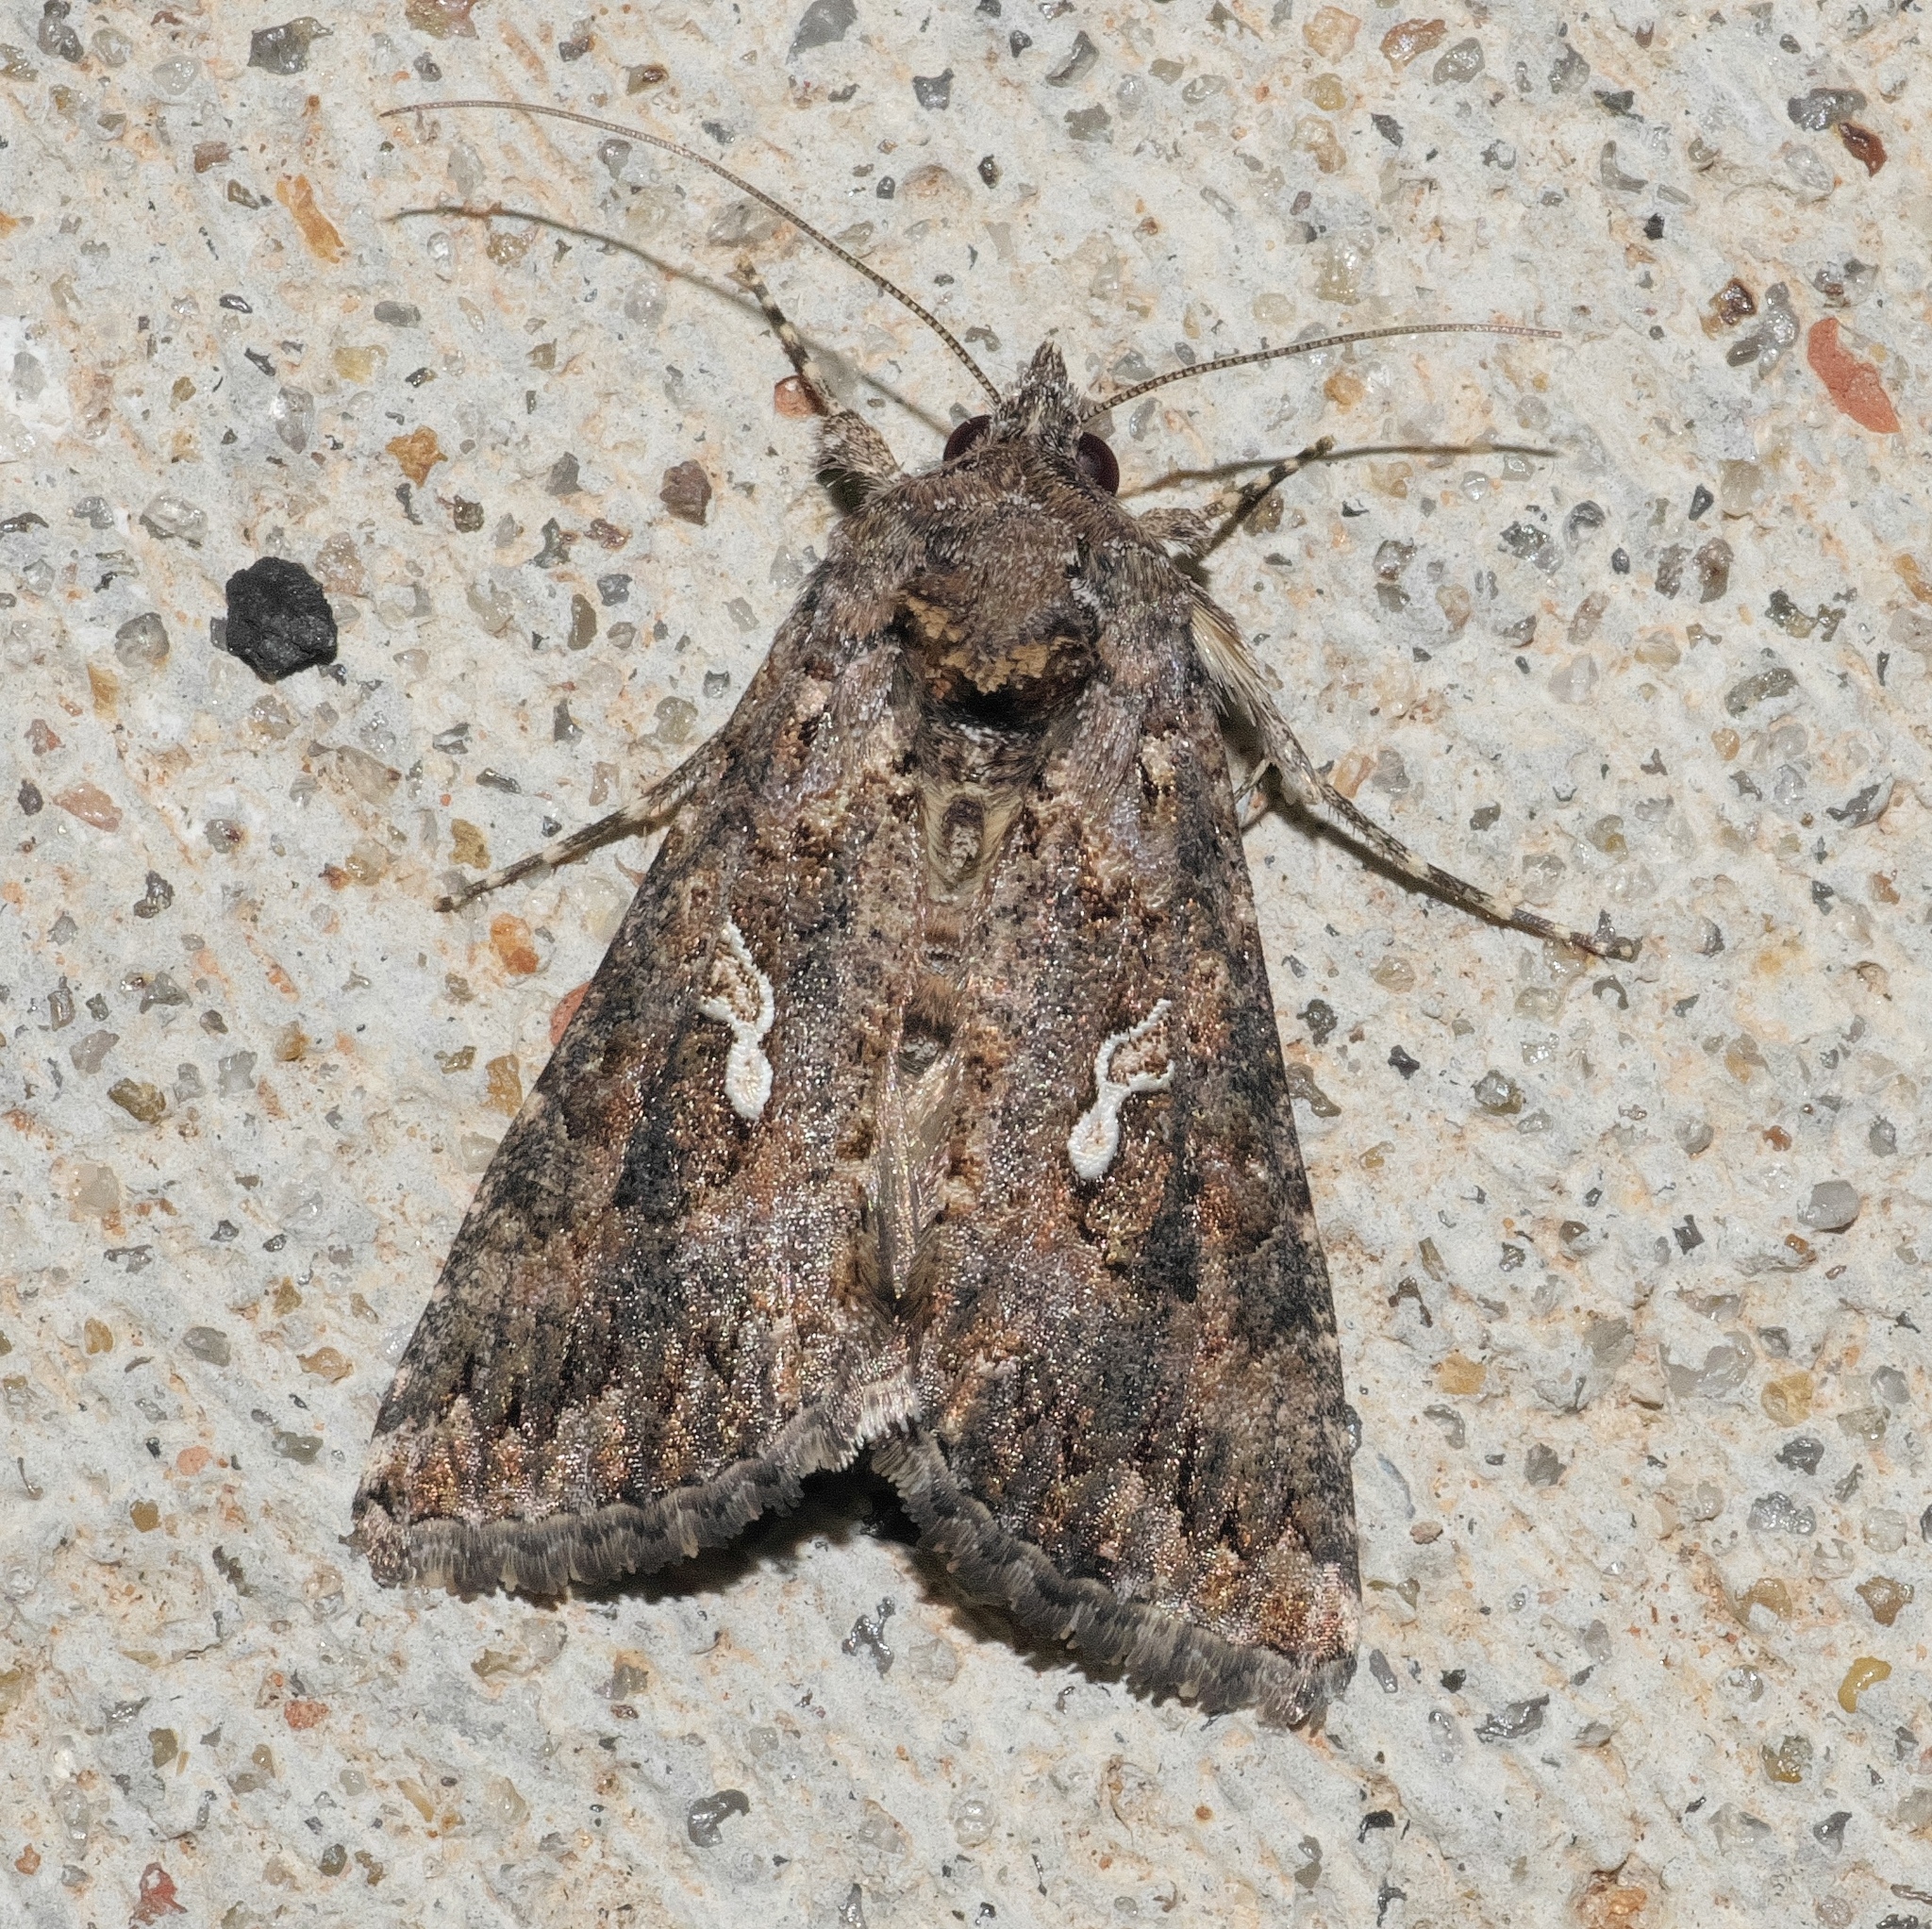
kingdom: Animalia
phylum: Arthropoda
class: Insecta
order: Lepidoptera
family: Noctuidae
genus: Trichoplusia
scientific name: Trichoplusia ni
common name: Ni moth
